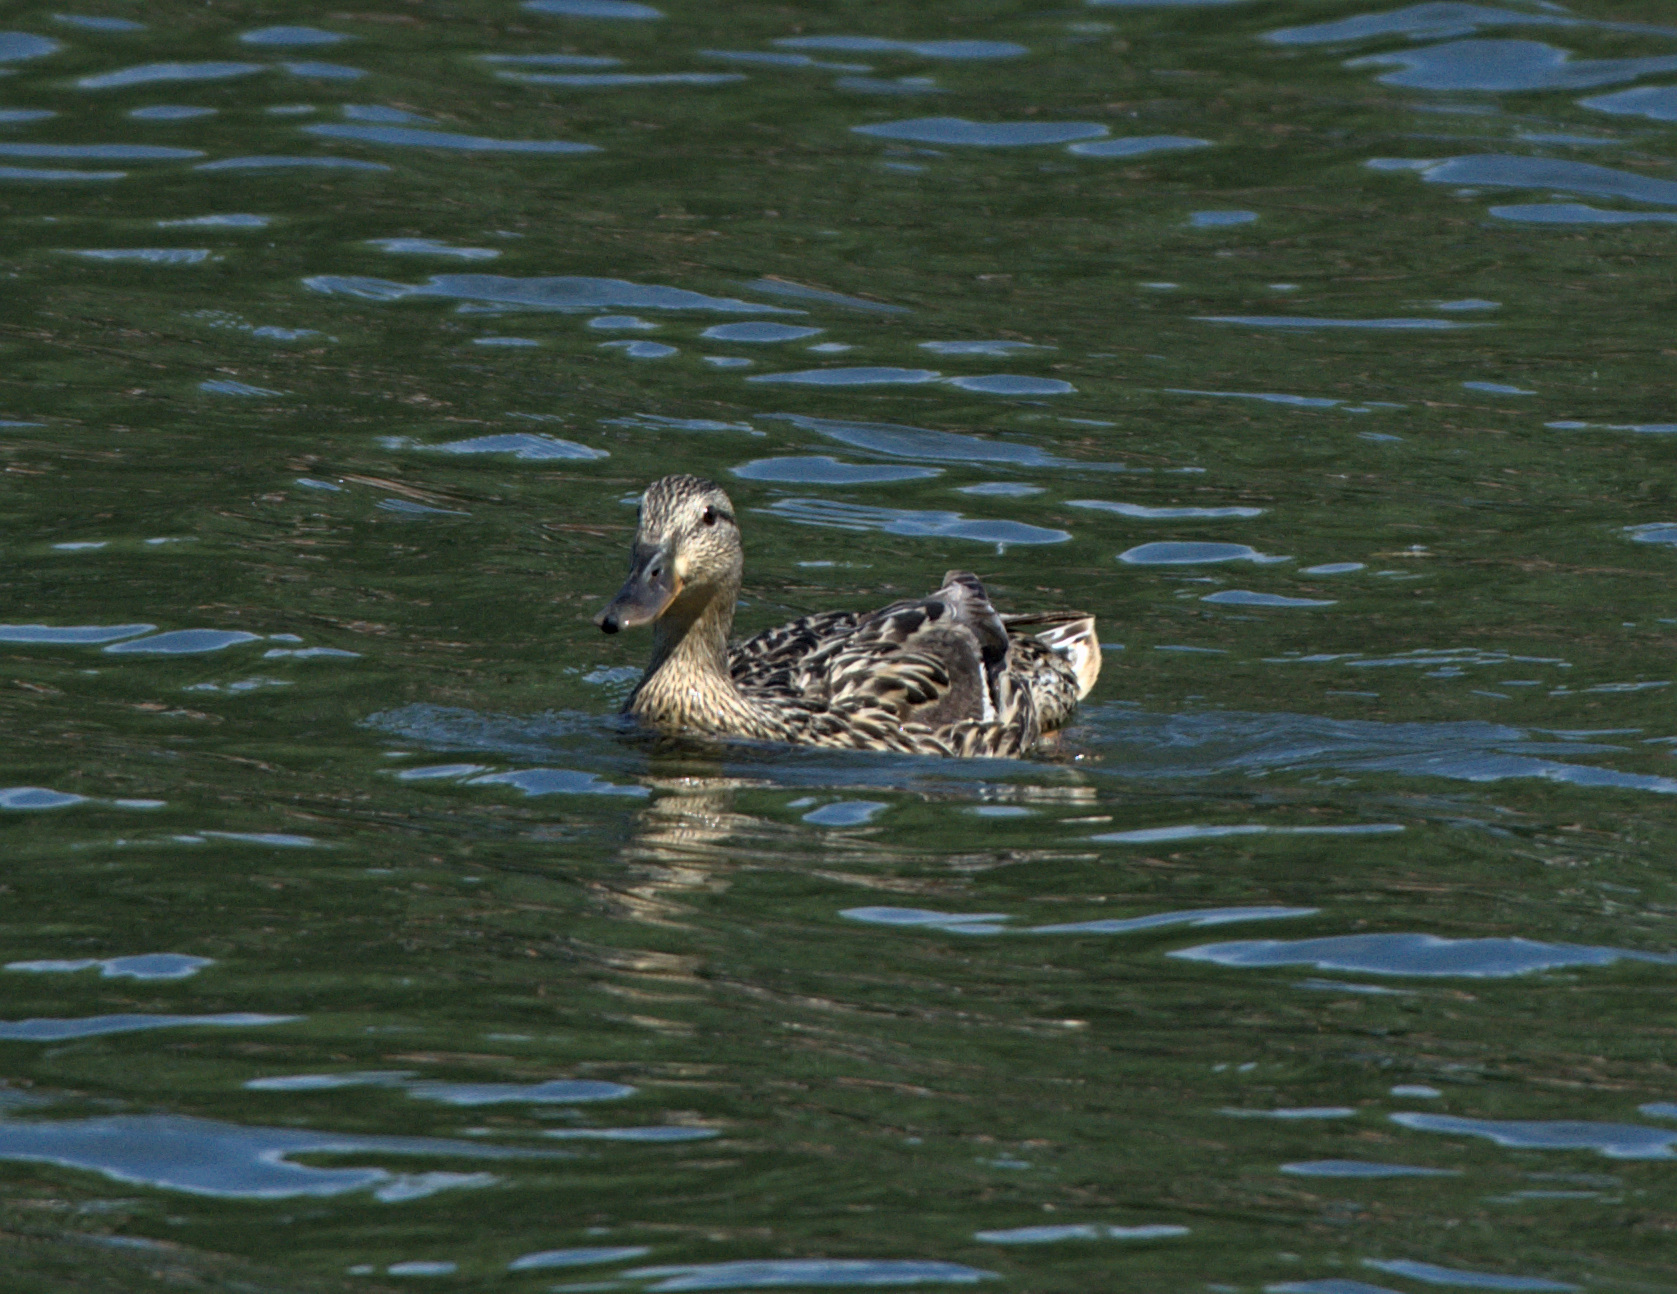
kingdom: Animalia
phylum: Chordata
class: Aves
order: Anseriformes
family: Anatidae
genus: Anas
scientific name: Anas platyrhynchos
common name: Mallard
